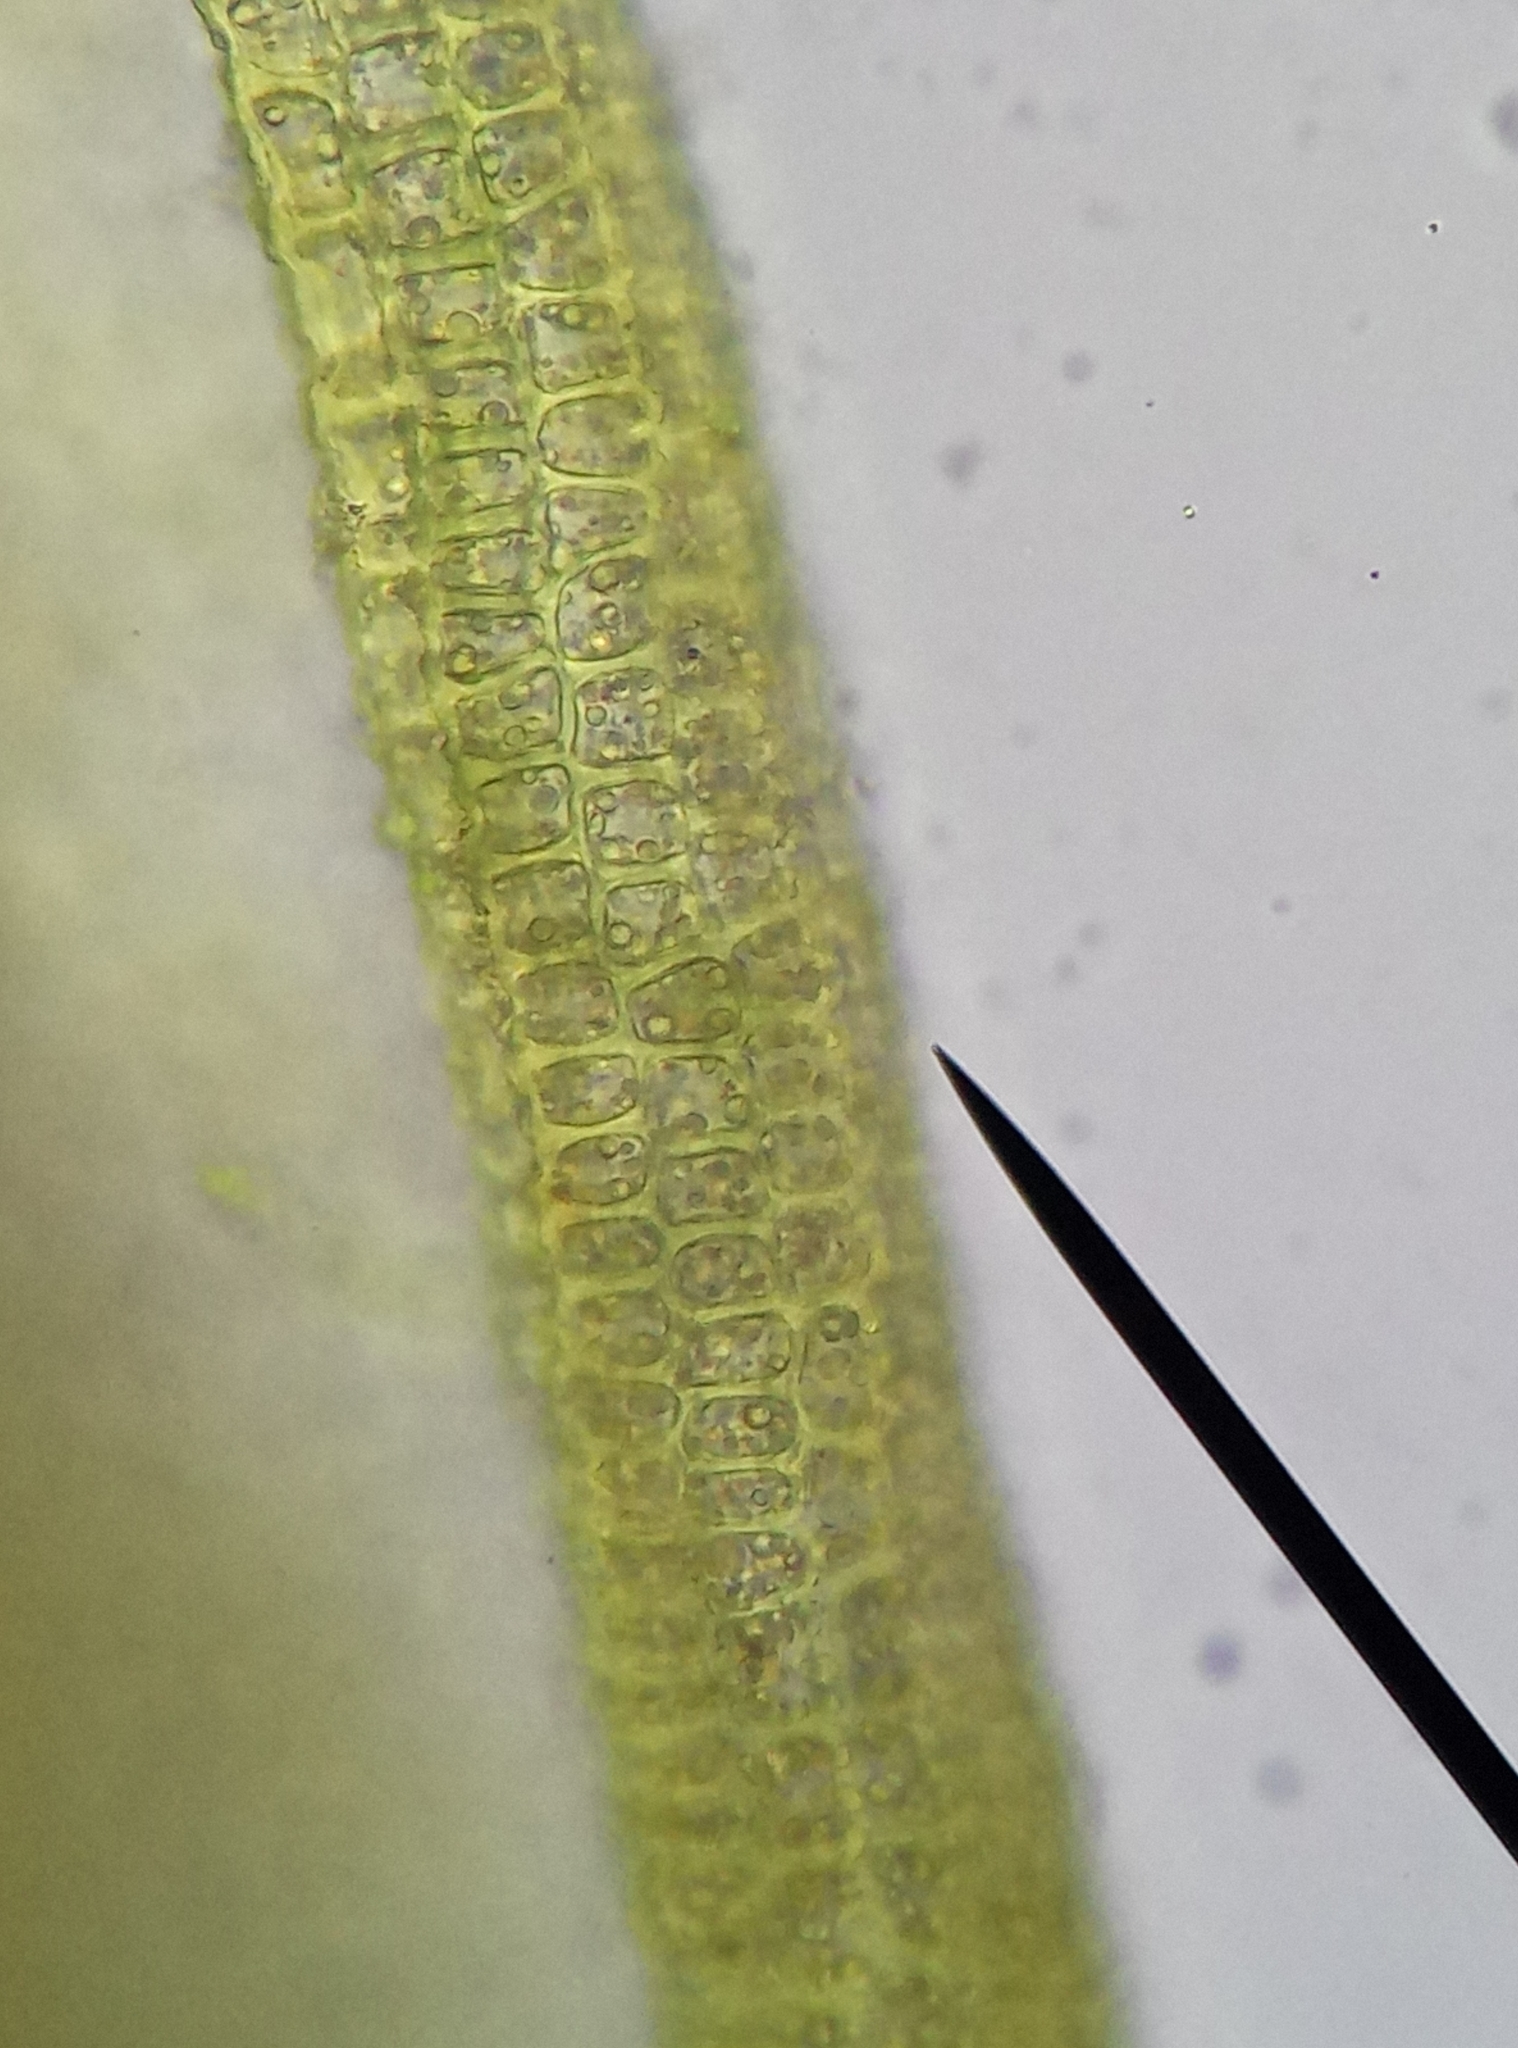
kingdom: Plantae
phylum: Bryophyta
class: Bryopsida
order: Pottiales
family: Pottiaceae
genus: Barbula
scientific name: Barbula unguiculata
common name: Prickly beard moss
